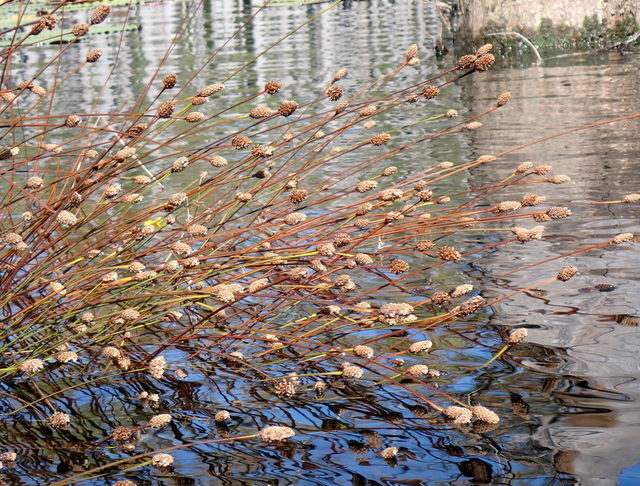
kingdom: Plantae
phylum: Tracheophyta
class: Liliopsida
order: Poales
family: Xyridaceae
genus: Xyris
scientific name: Xyris fimbriata
